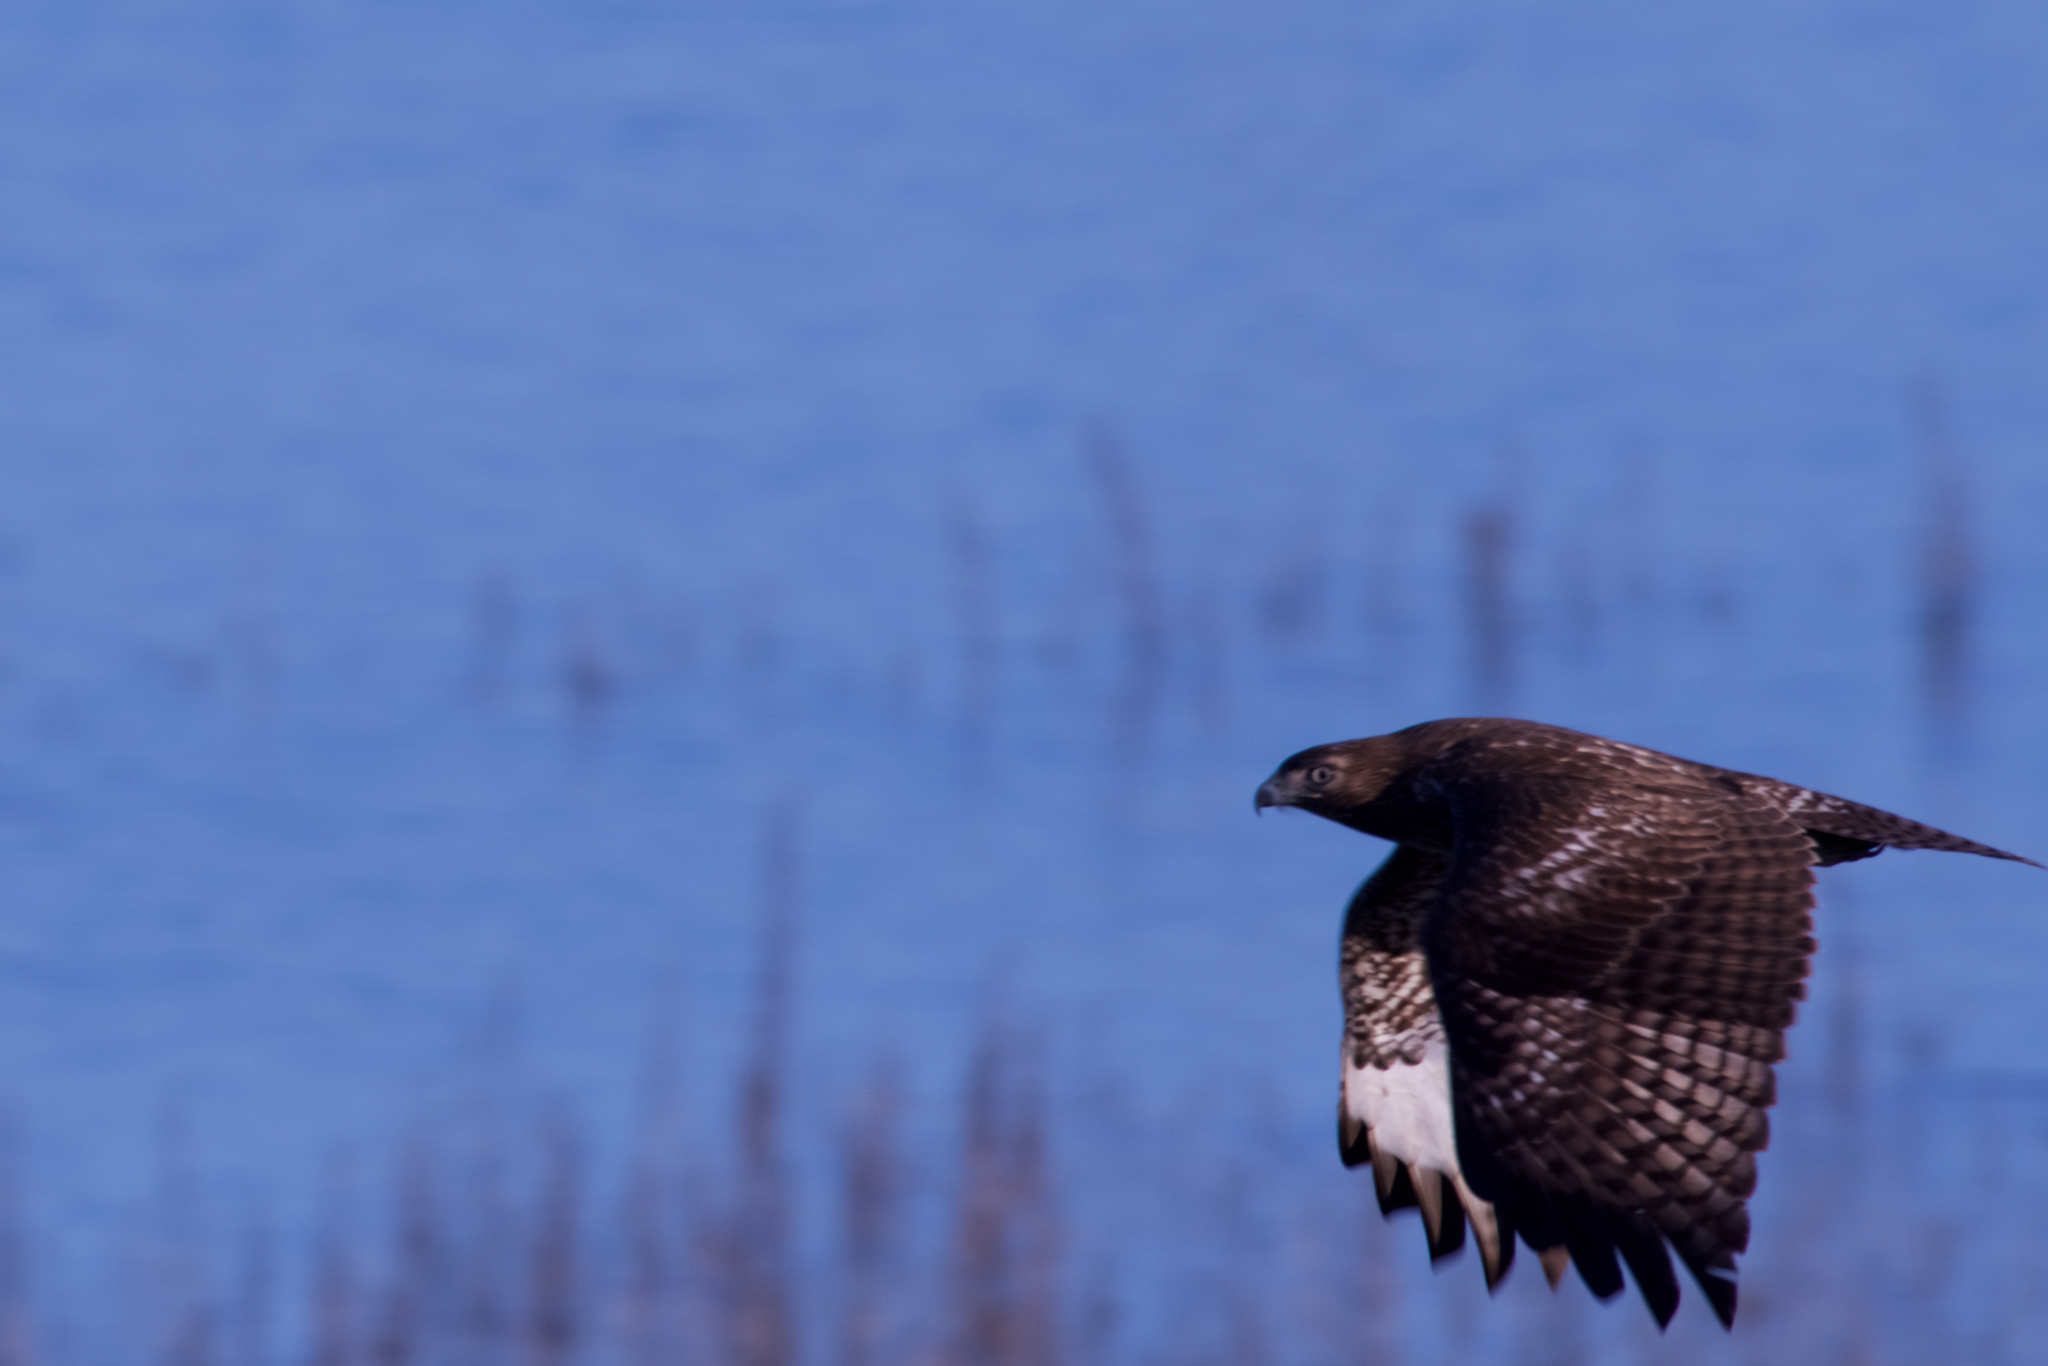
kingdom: Animalia
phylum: Chordata
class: Aves
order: Accipitriformes
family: Accipitridae
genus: Buteo
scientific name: Buteo jamaicensis
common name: Red-tailed hawk
